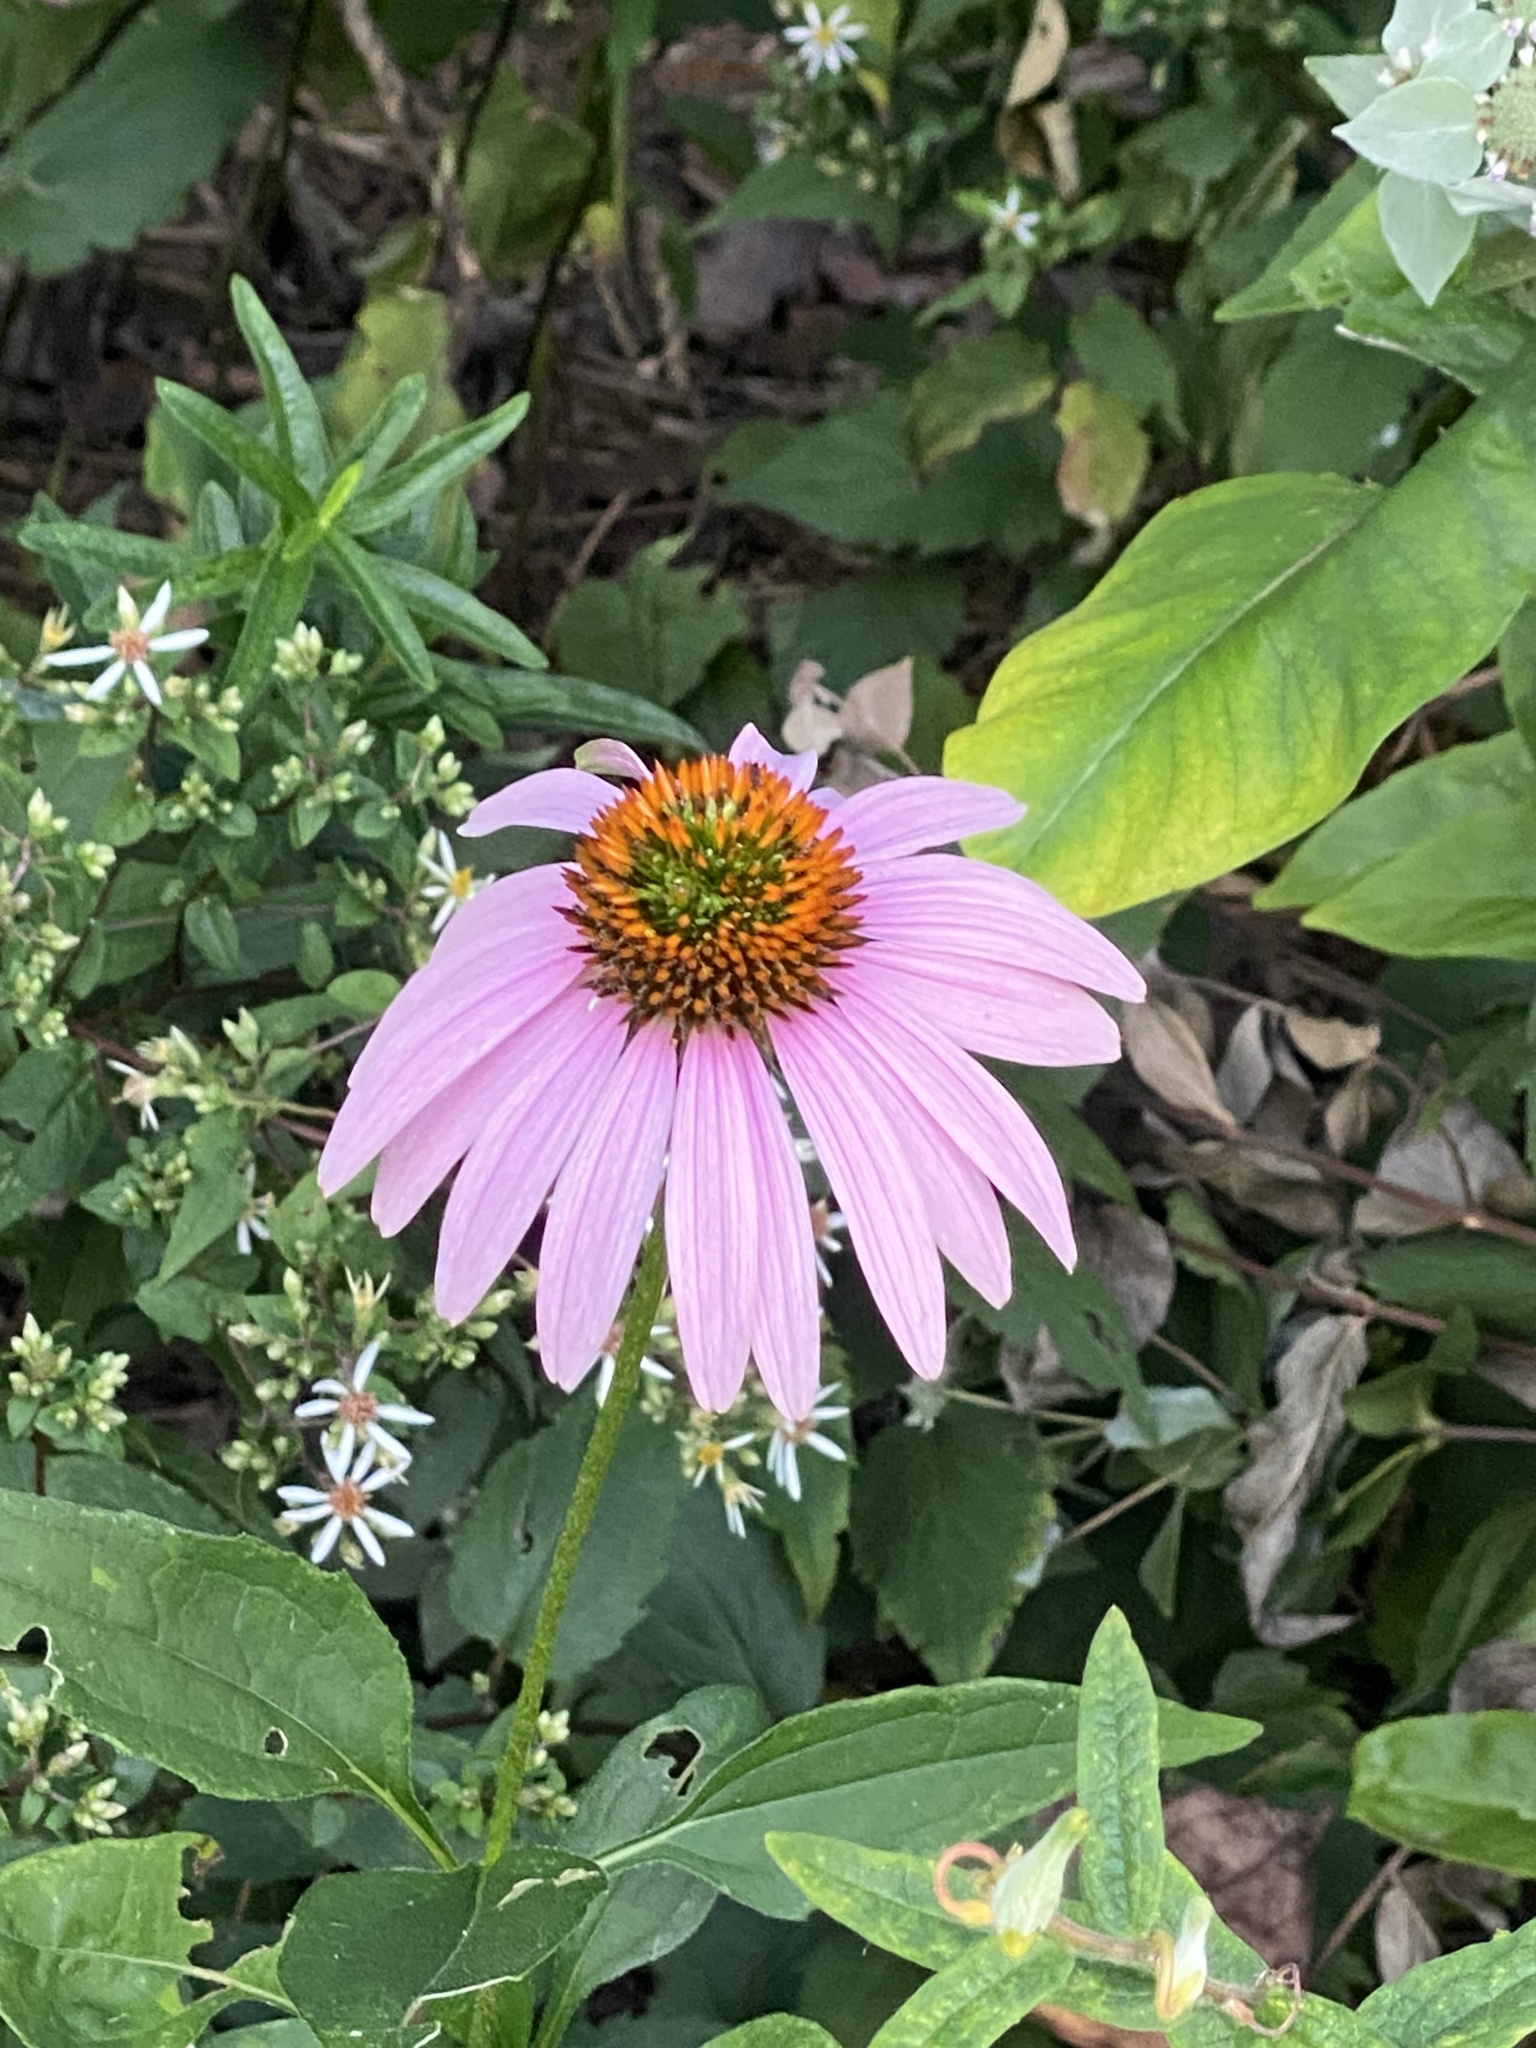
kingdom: Plantae
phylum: Tracheophyta
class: Magnoliopsida
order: Asterales
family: Asteraceae
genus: Echinacea
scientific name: Echinacea purpurea
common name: Broad-leaved purple coneflower
